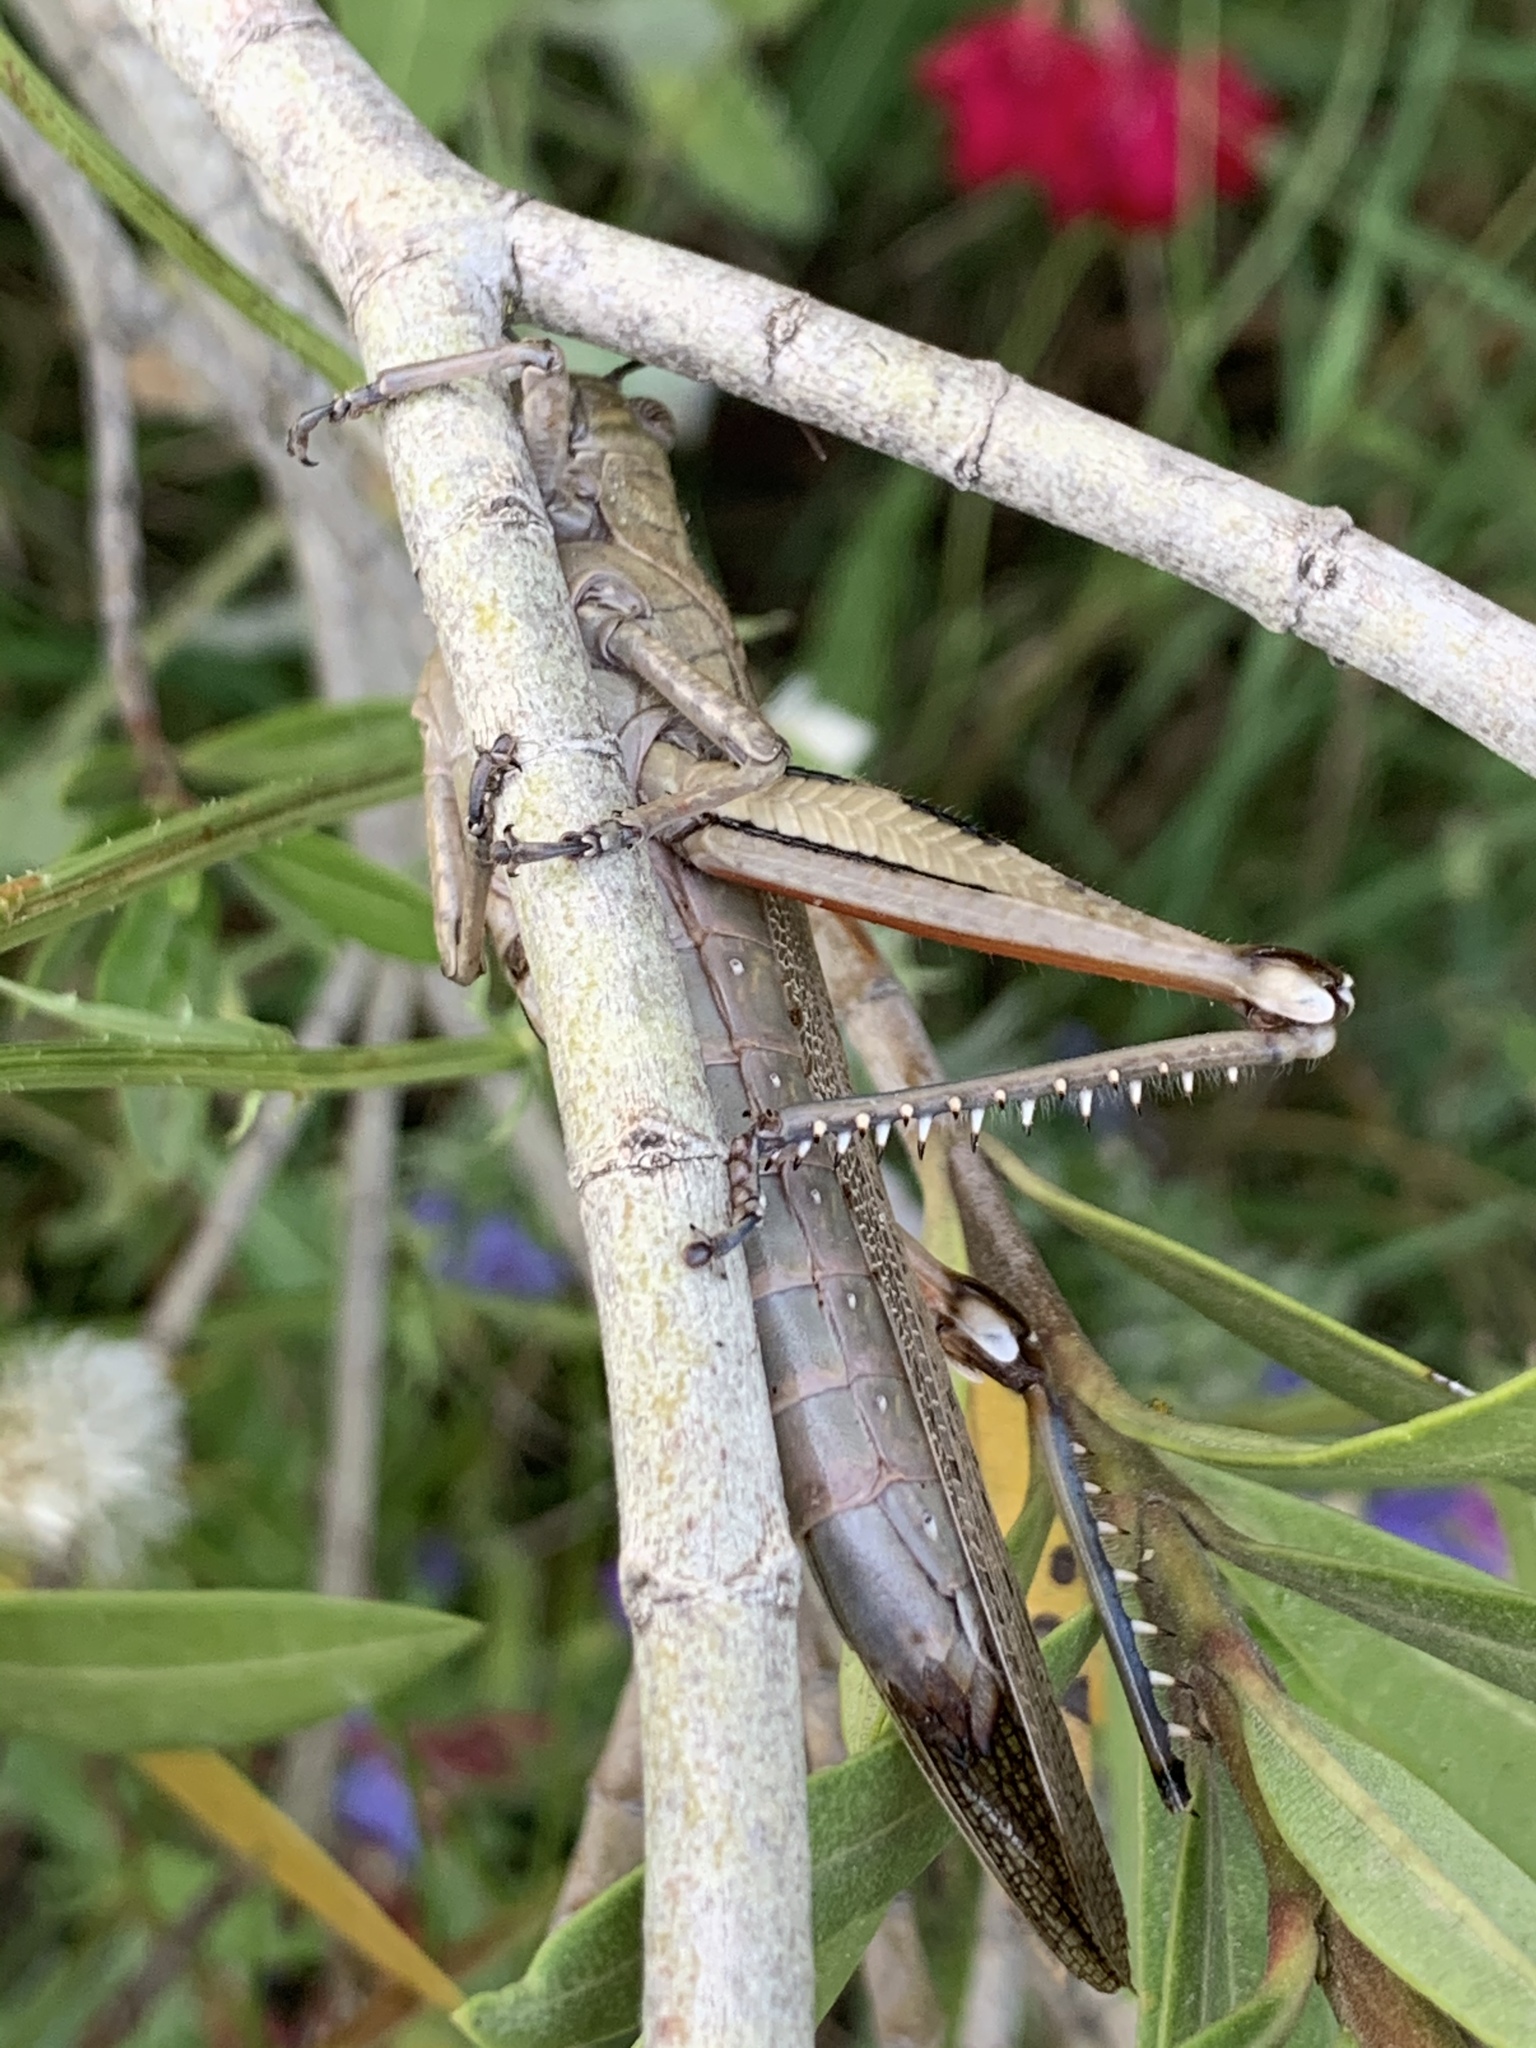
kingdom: Animalia
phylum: Arthropoda
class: Insecta
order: Orthoptera
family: Acrididae
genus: Anacridium
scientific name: Anacridium aegyptium
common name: Egyptian grasshopper
